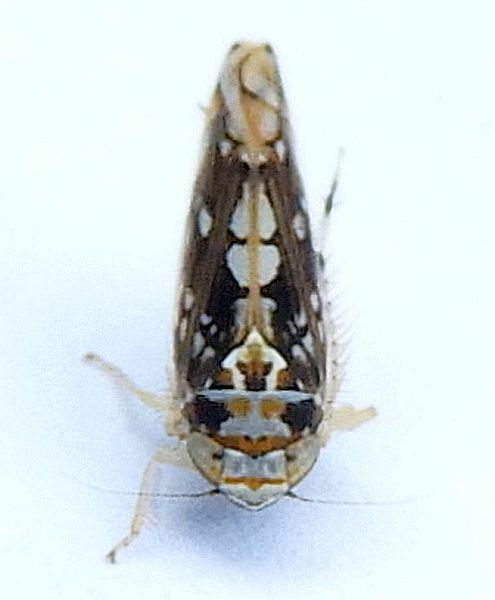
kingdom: Animalia
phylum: Arthropoda
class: Insecta
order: Hemiptera
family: Cicadellidae
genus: Scaphoideus
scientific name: Scaphoideus melanotus
